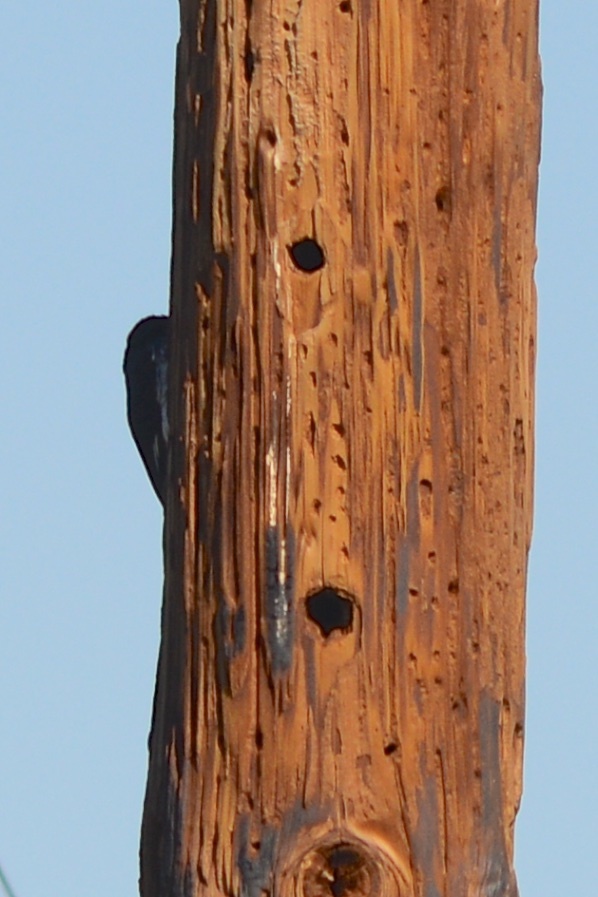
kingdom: Animalia
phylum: Chordata
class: Aves
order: Piciformes
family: Picidae
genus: Melanerpes
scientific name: Melanerpes formicivorus
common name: Acorn woodpecker
